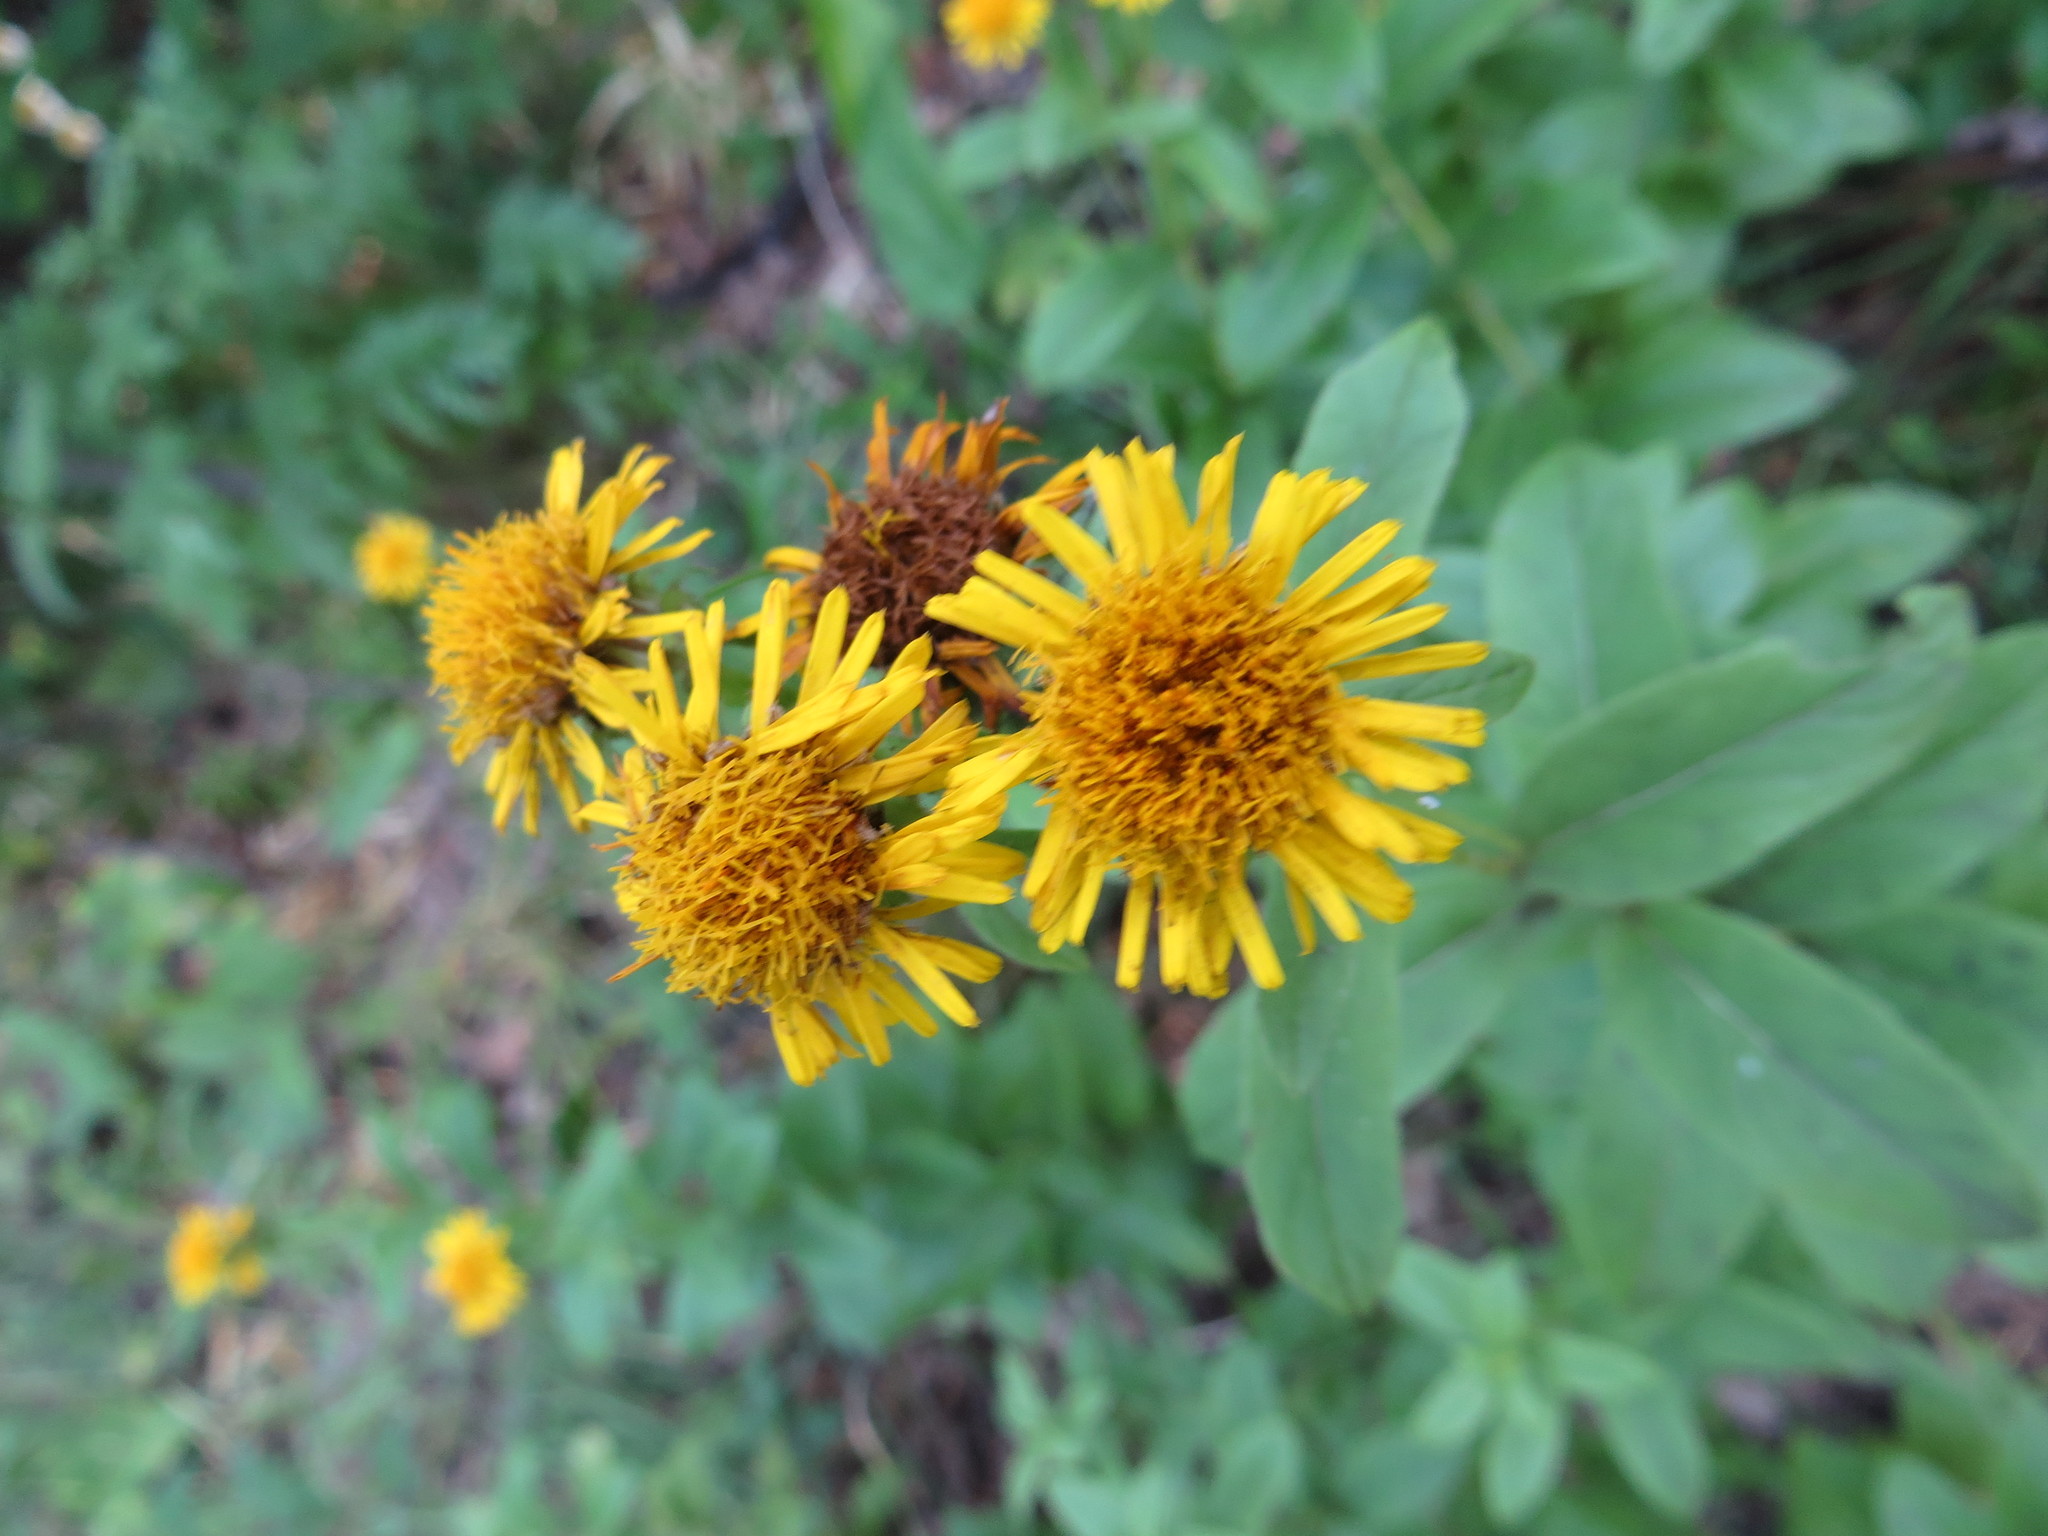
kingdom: Plantae
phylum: Tracheophyta
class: Magnoliopsida
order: Asterales
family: Asteraceae
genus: Pentanema
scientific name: Pentanema salicinum
